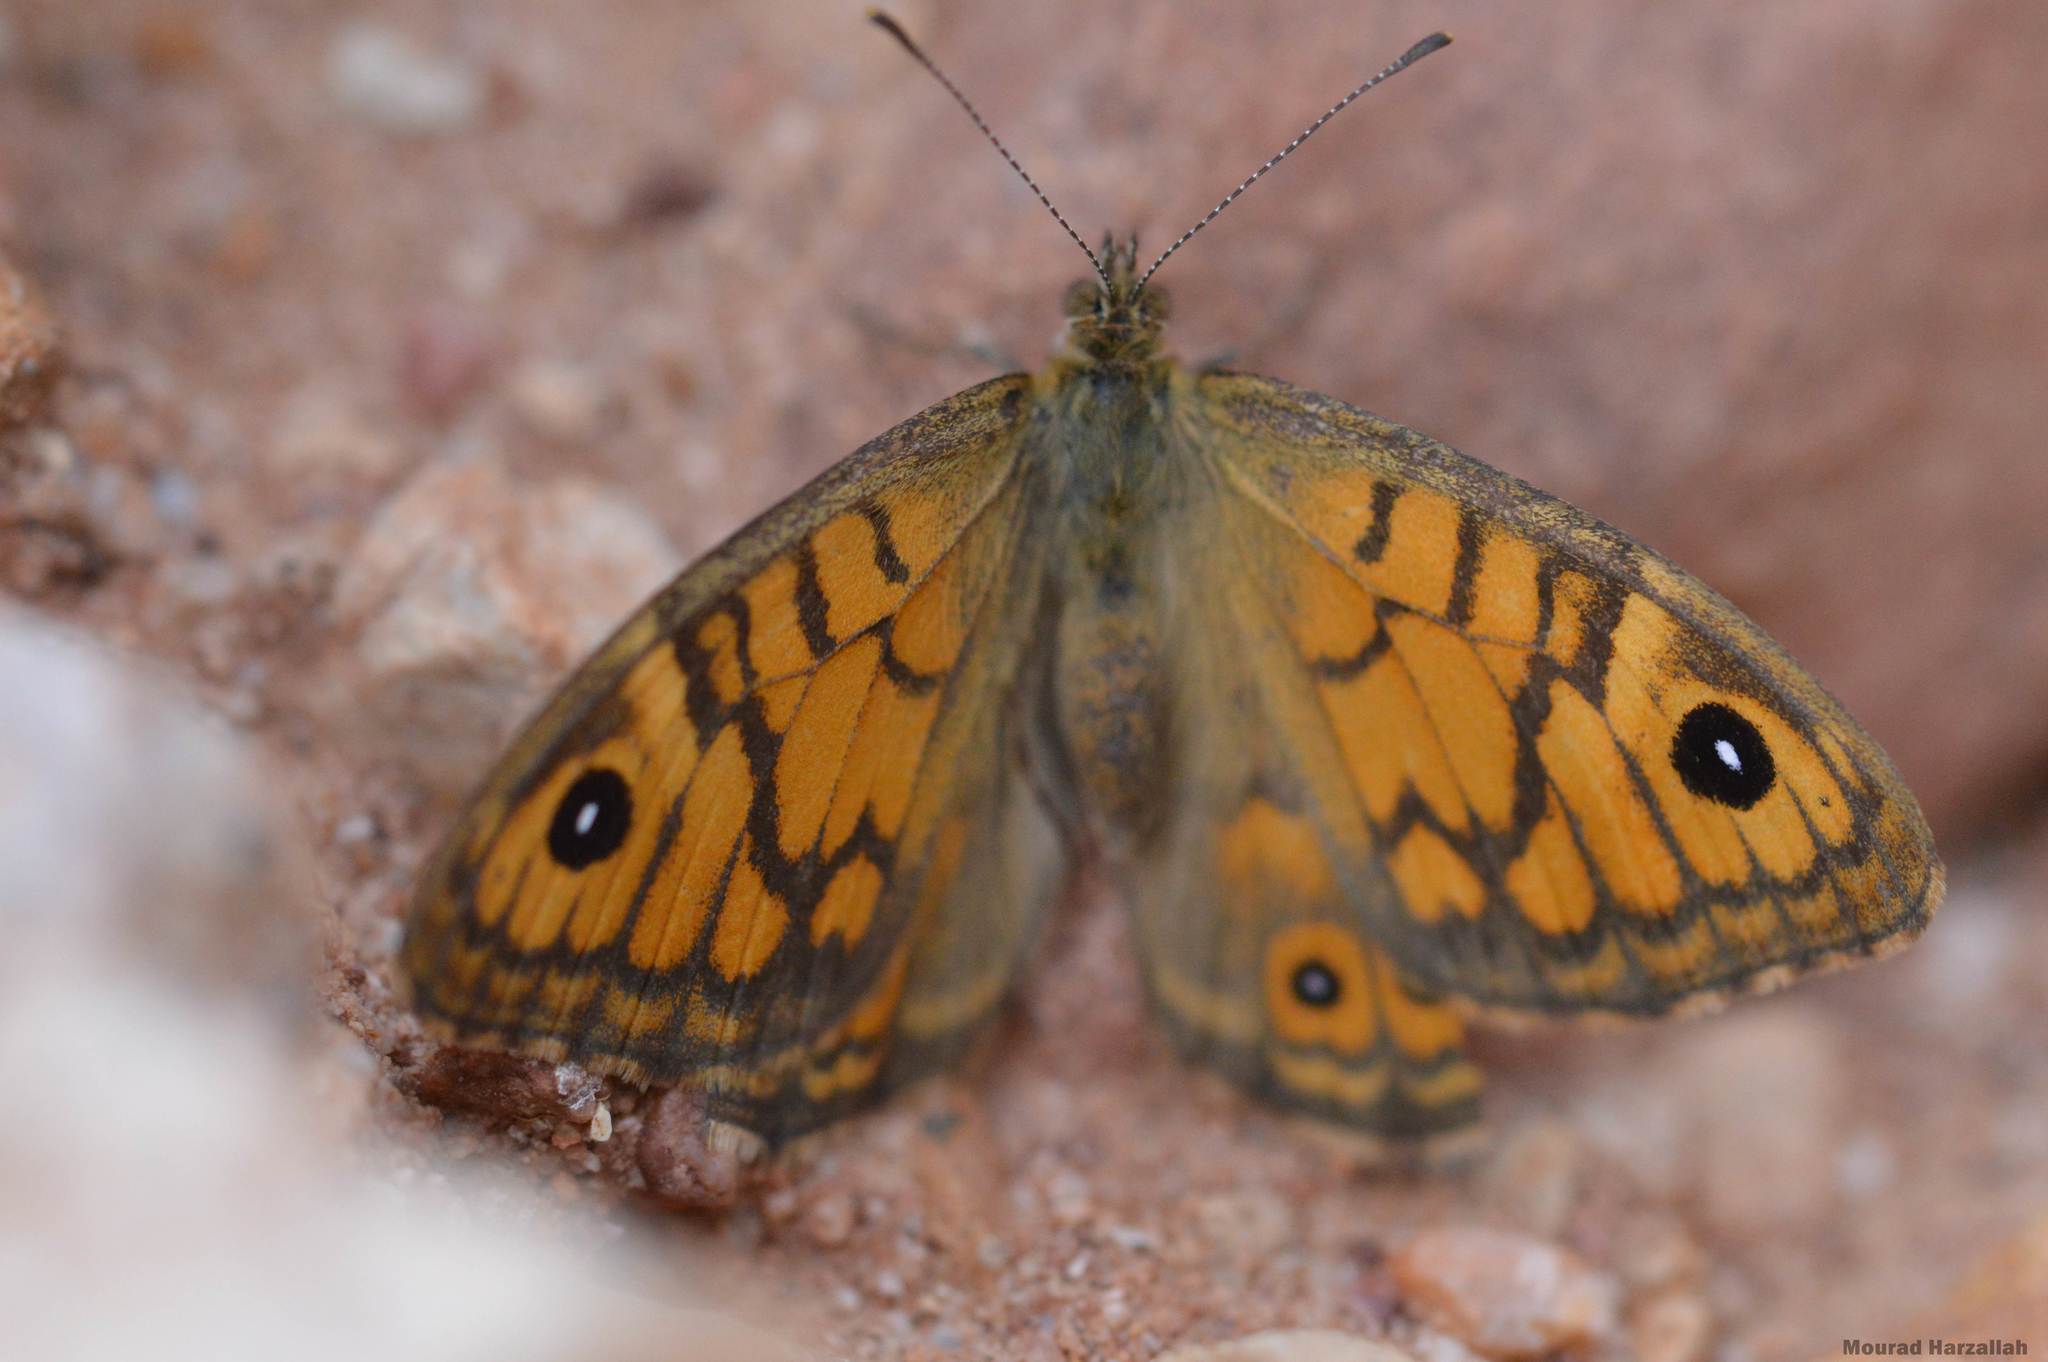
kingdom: Animalia
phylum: Arthropoda
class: Insecta
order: Lepidoptera
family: Nymphalidae
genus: Pararge
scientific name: Pararge Lasiommata megera
